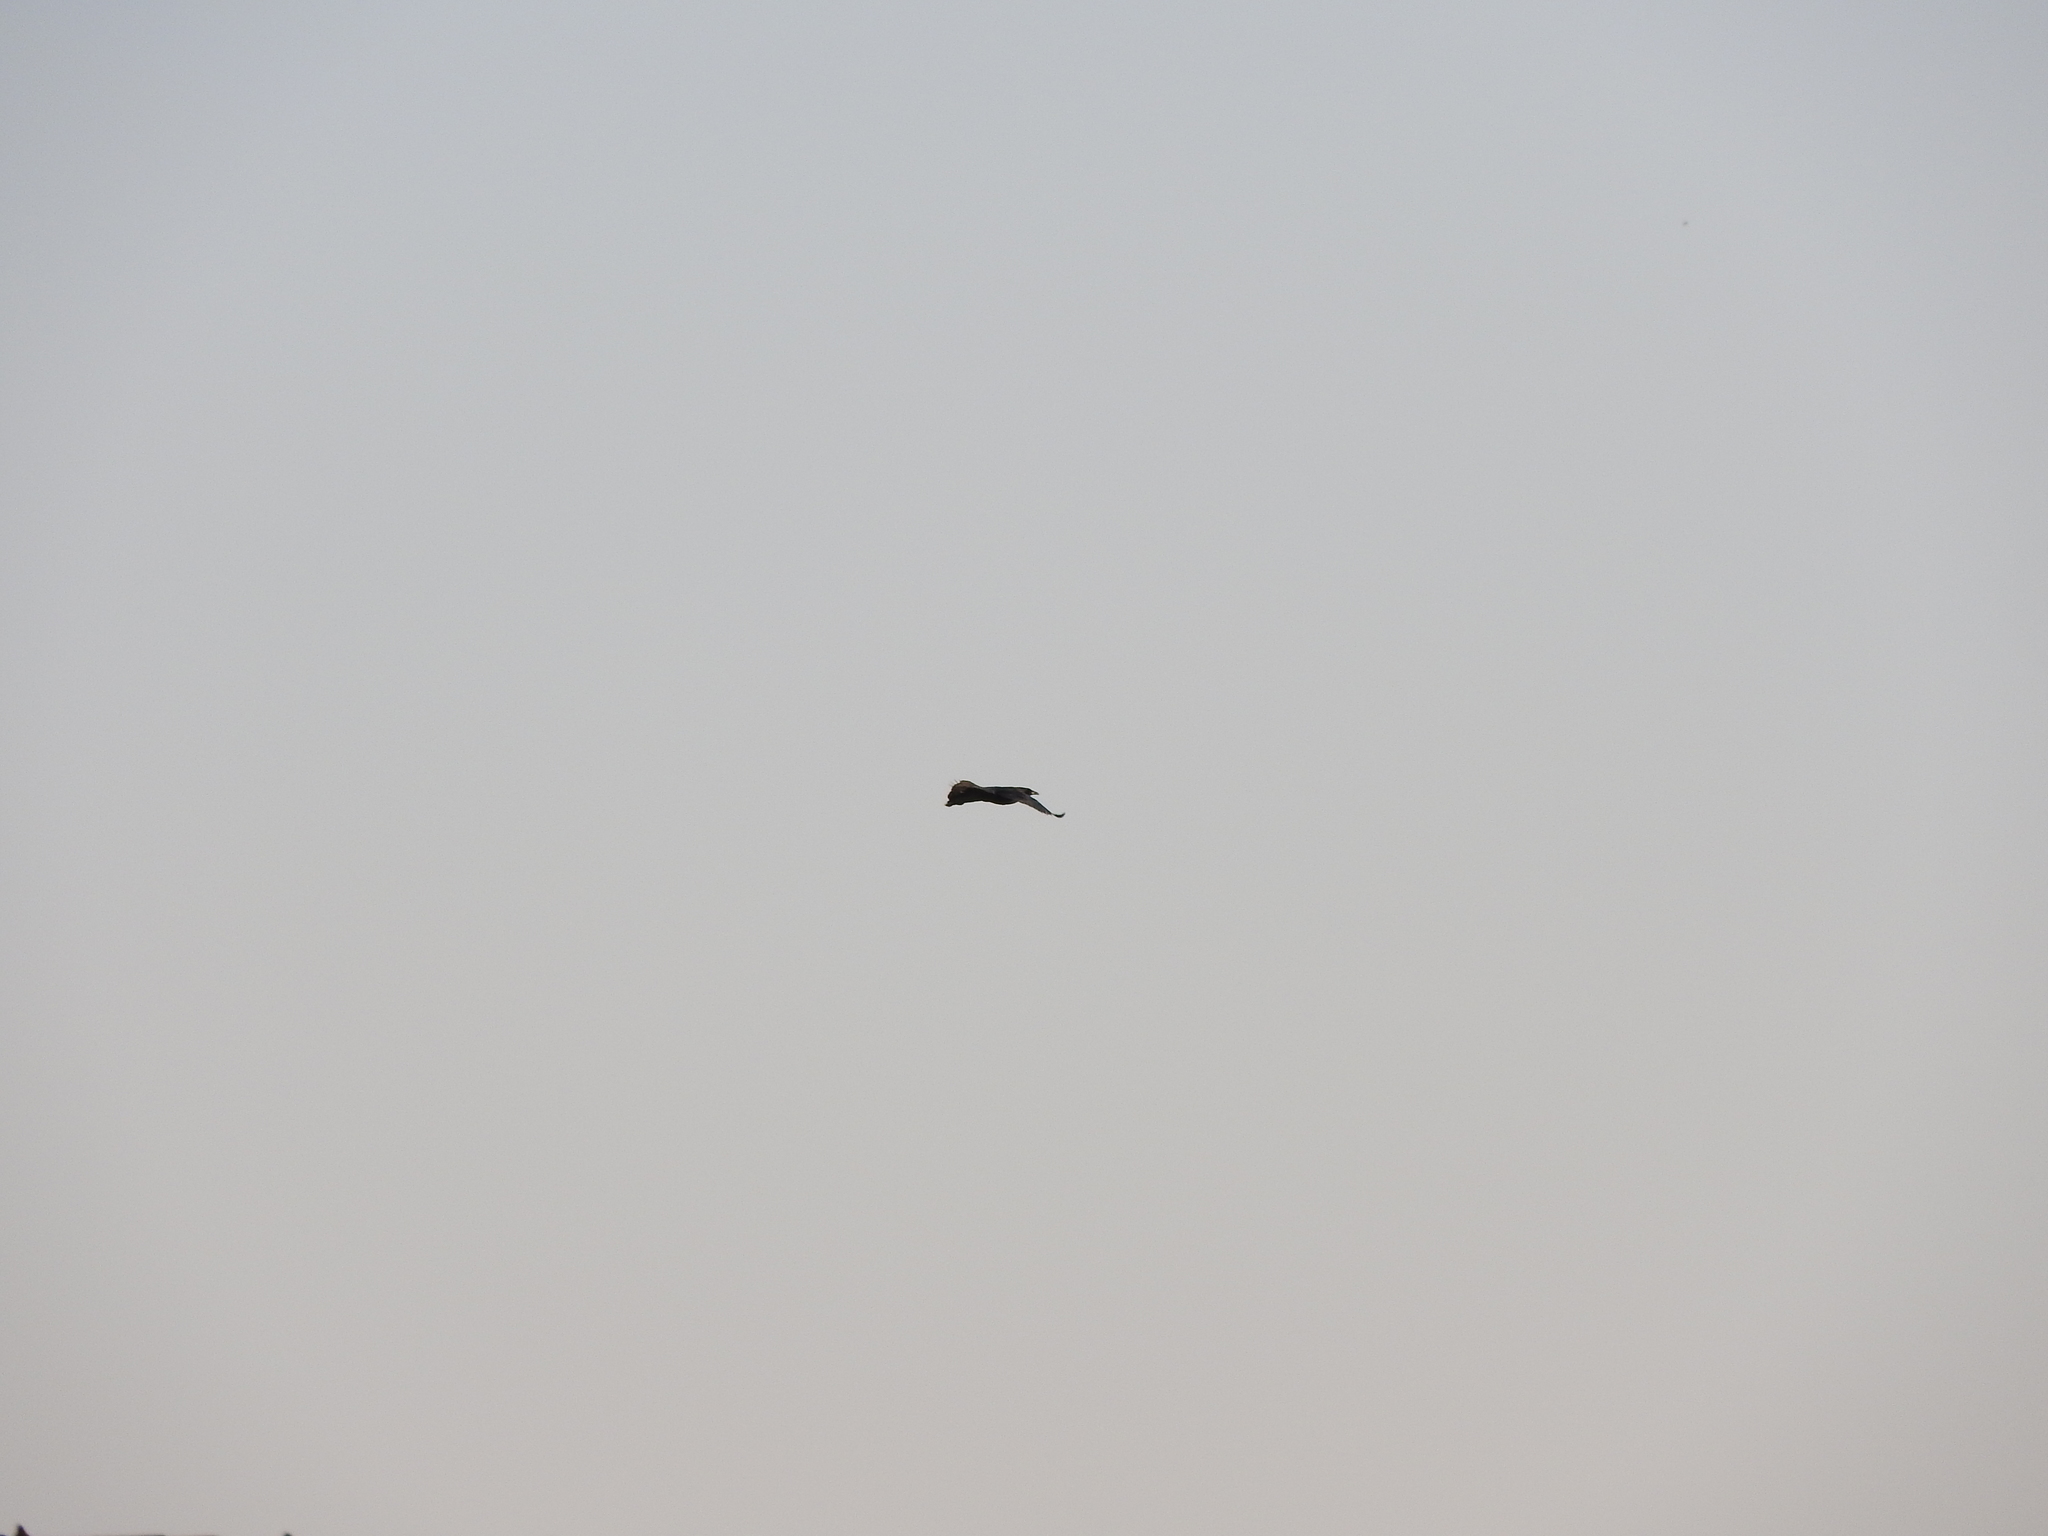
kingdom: Animalia
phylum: Chordata
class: Aves
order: Passeriformes
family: Icteridae
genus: Quiscalus
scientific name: Quiscalus mexicanus
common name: Great-tailed grackle
